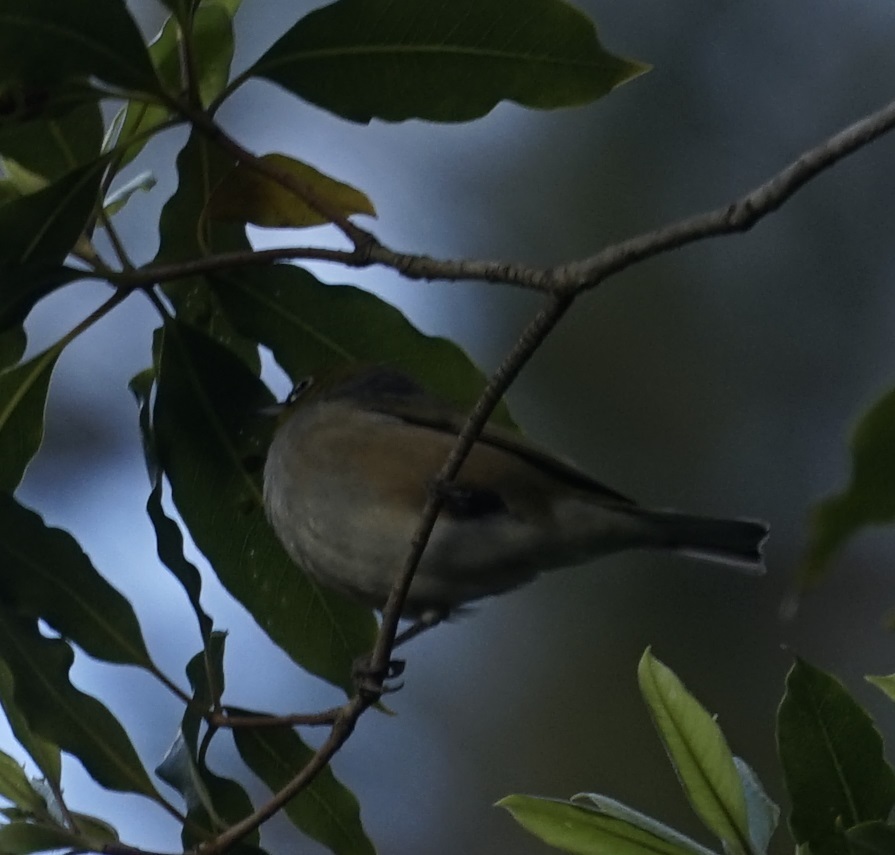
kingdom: Animalia
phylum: Chordata
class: Aves
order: Passeriformes
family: Zosteropidae
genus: Zosterops
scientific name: Zosterops lateralis
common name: Silvereye
